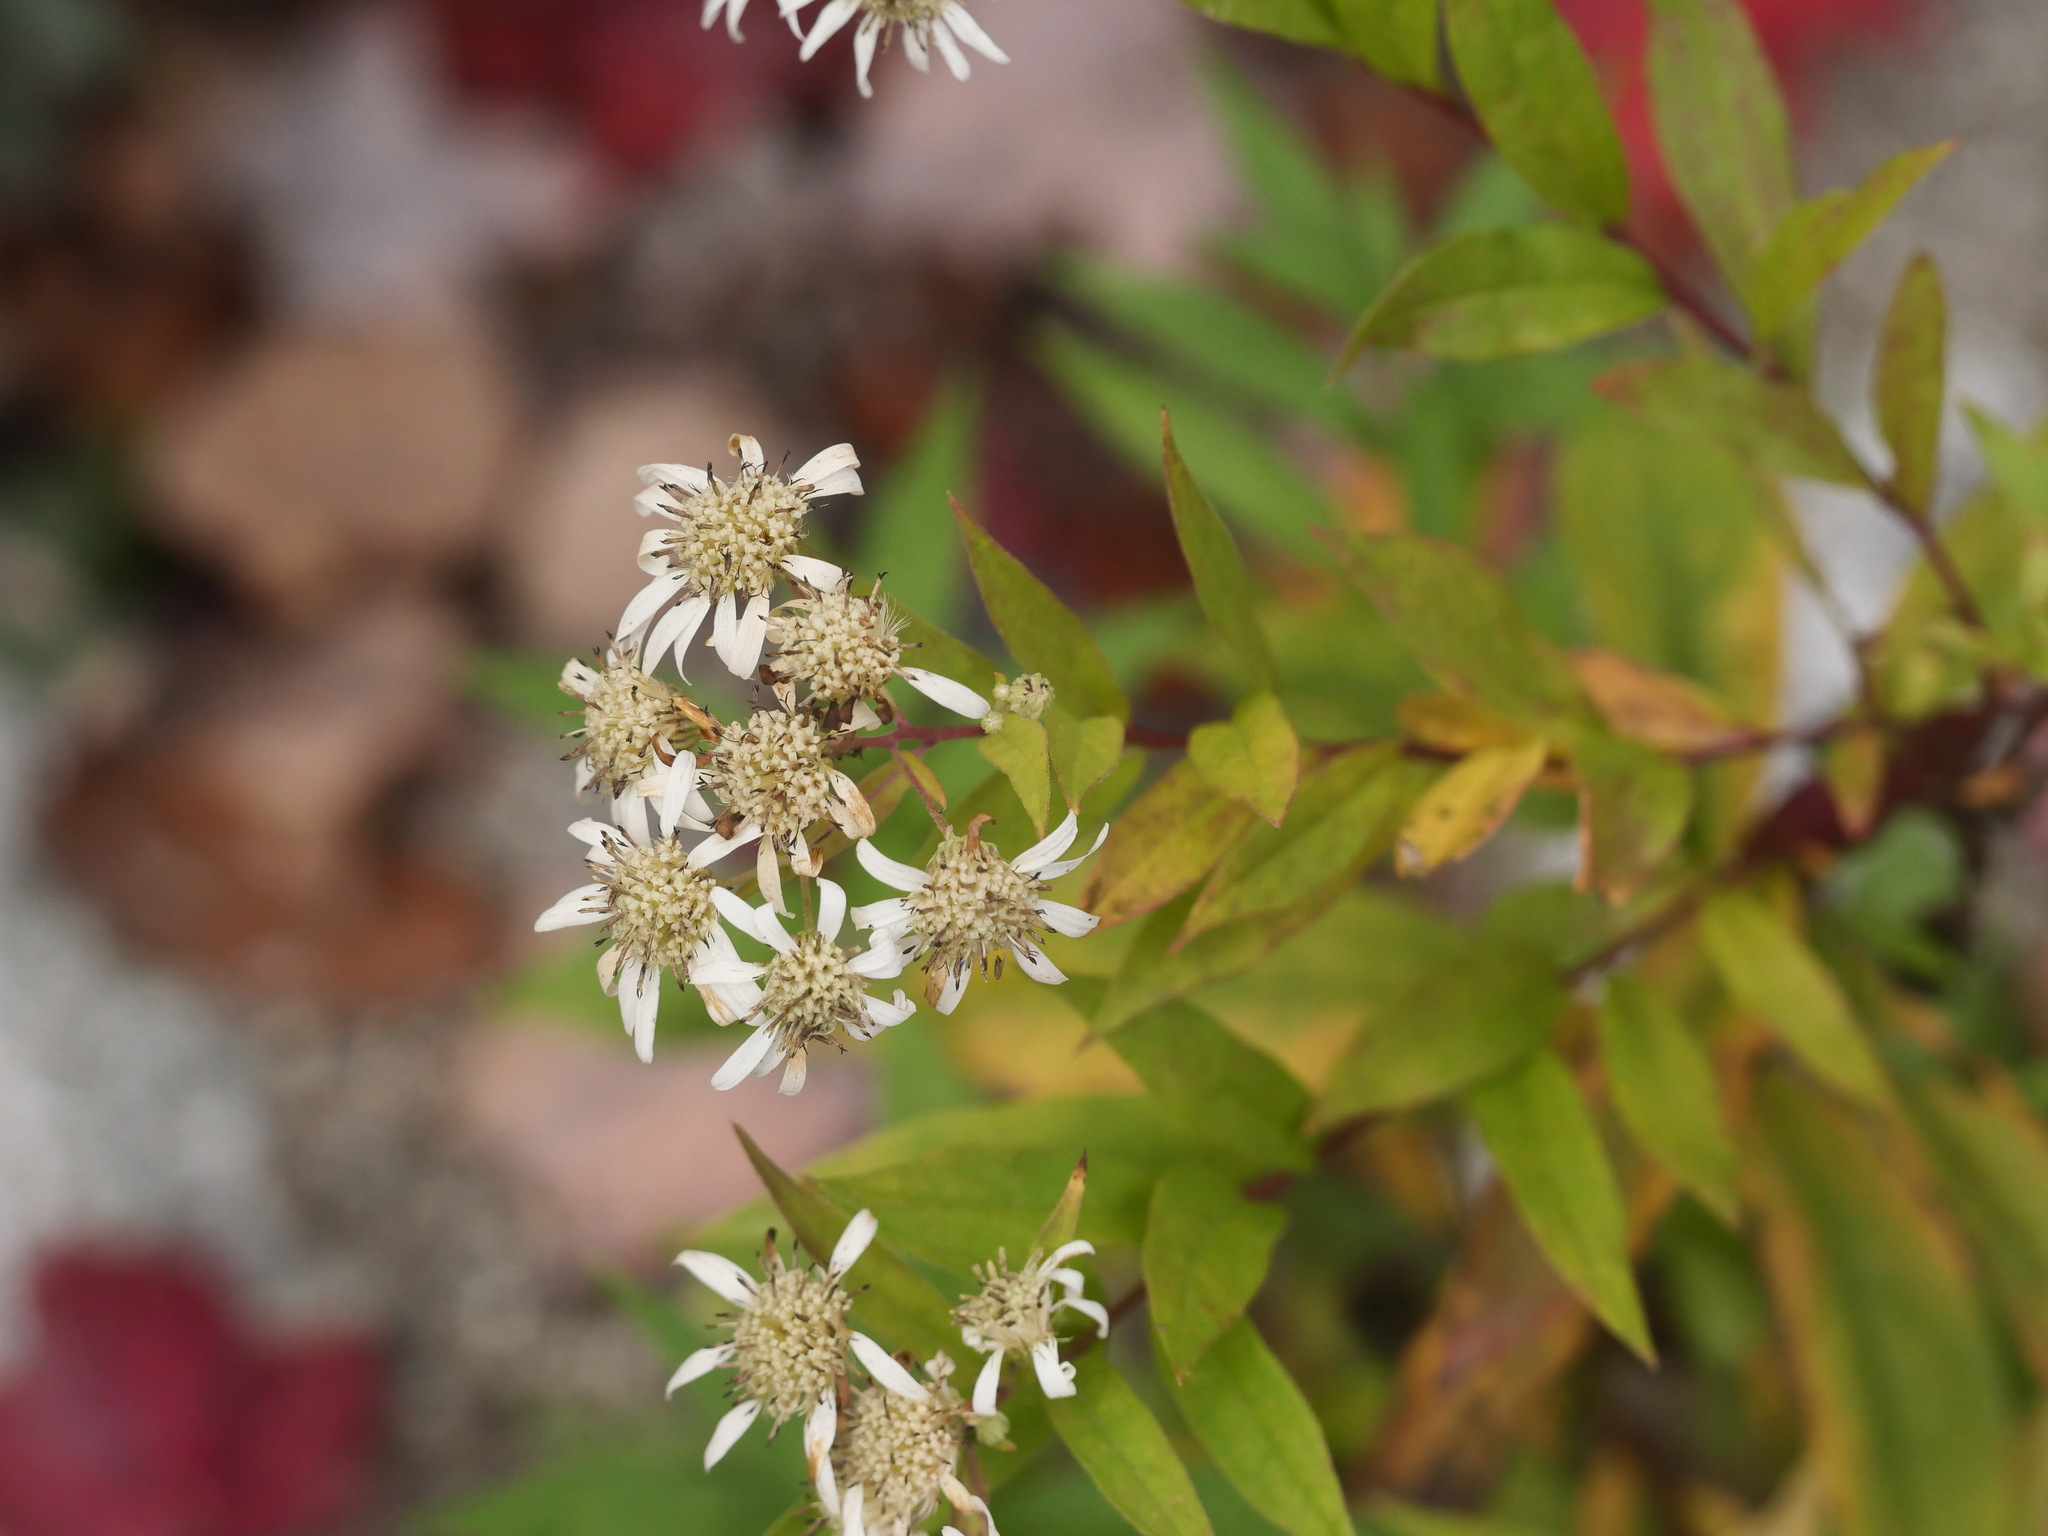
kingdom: Plantae
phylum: Tracheophyta
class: Magnoliopsida
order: Asterales
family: Asteraceae
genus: Doellingeria
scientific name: Doellingeria umbellata
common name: Flat-top white aster
